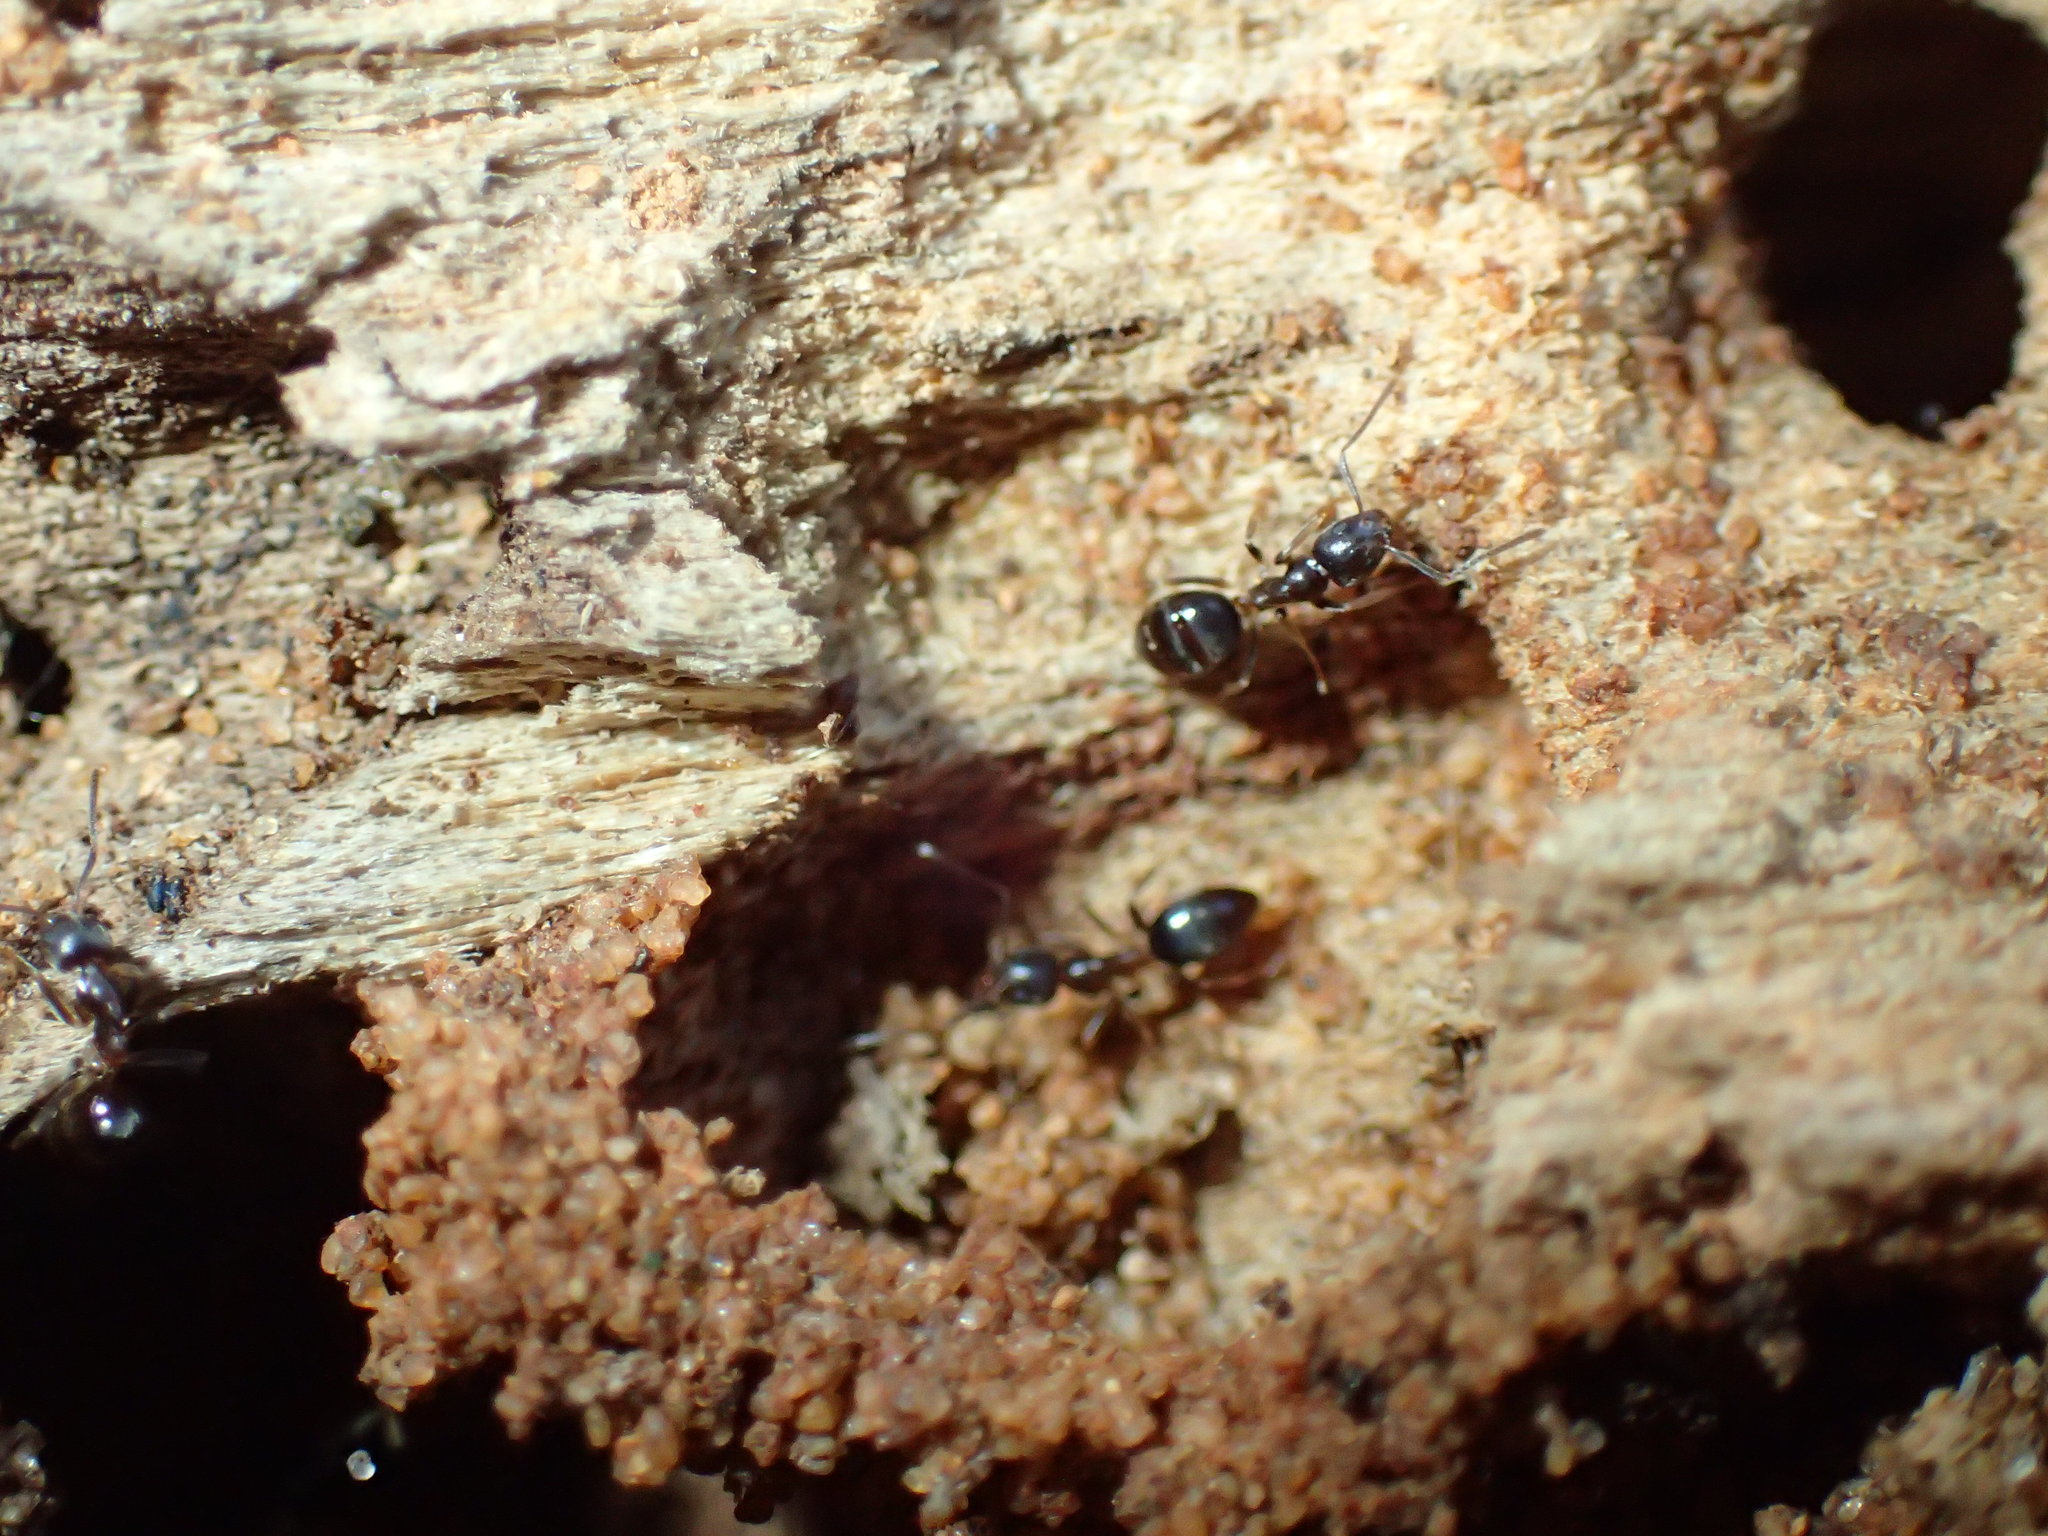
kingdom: Animalia
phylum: Arthropoda
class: Insecta
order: Hymenoptera
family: Formicidae
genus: Lepisiota
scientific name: Lepisiota capensis
